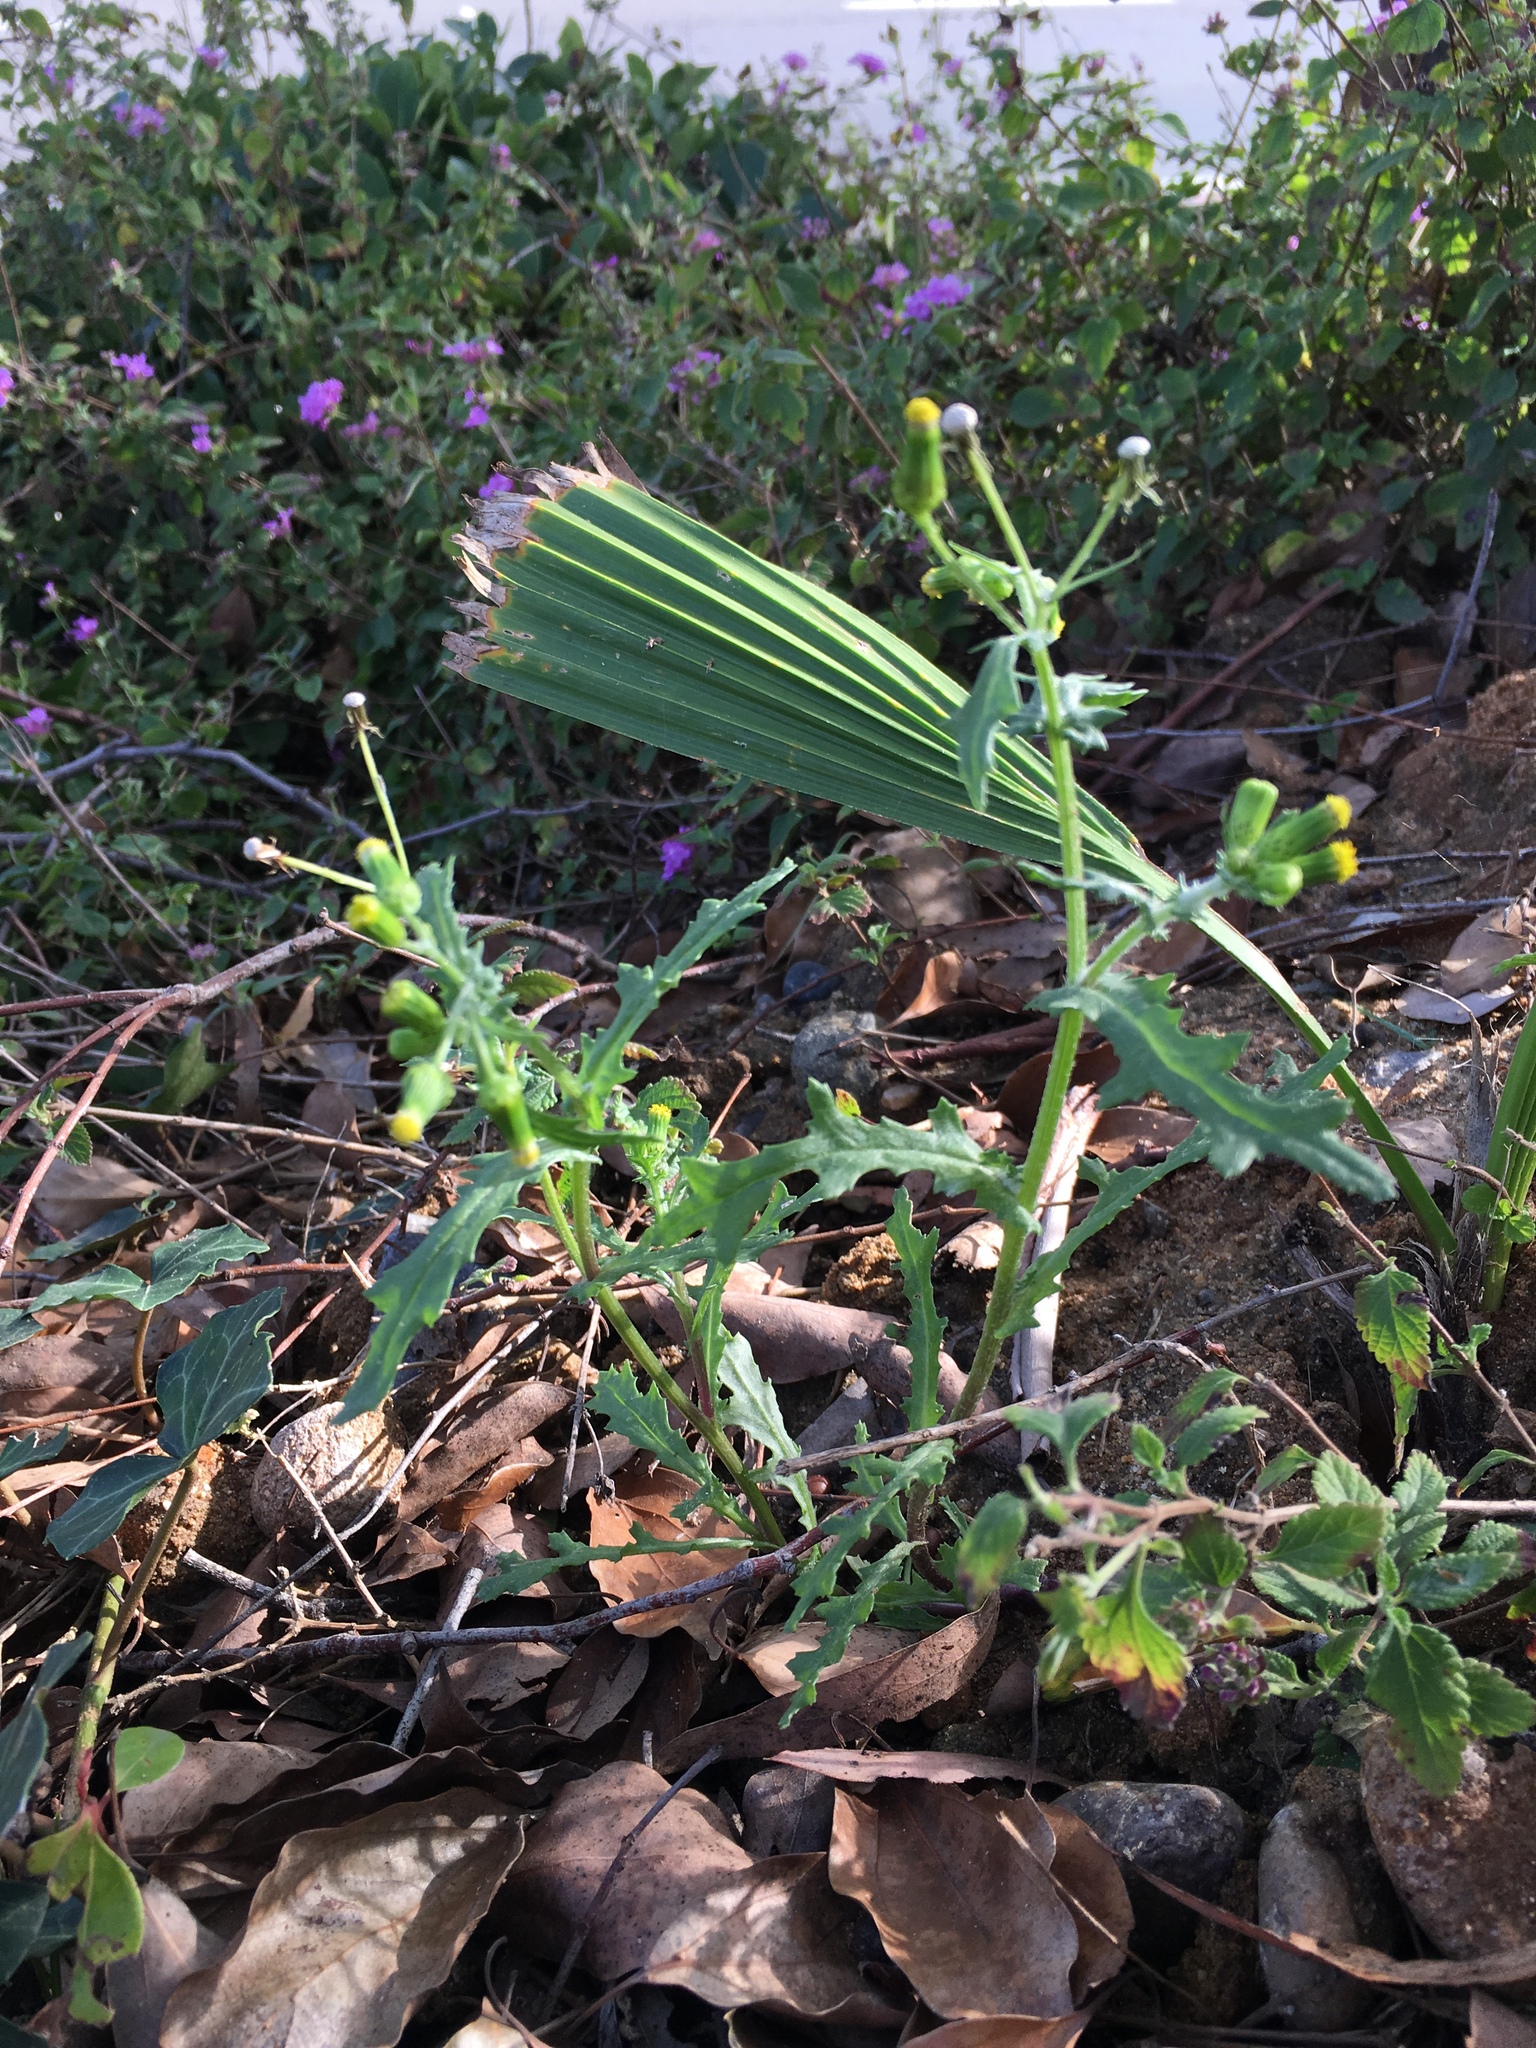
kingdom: Plantae
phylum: Tracheophyta
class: Magnoliopsida
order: Asterales
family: Asteraceae
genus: Senecio
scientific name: Senecio vulgaris
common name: Old-man-in-the-spring
